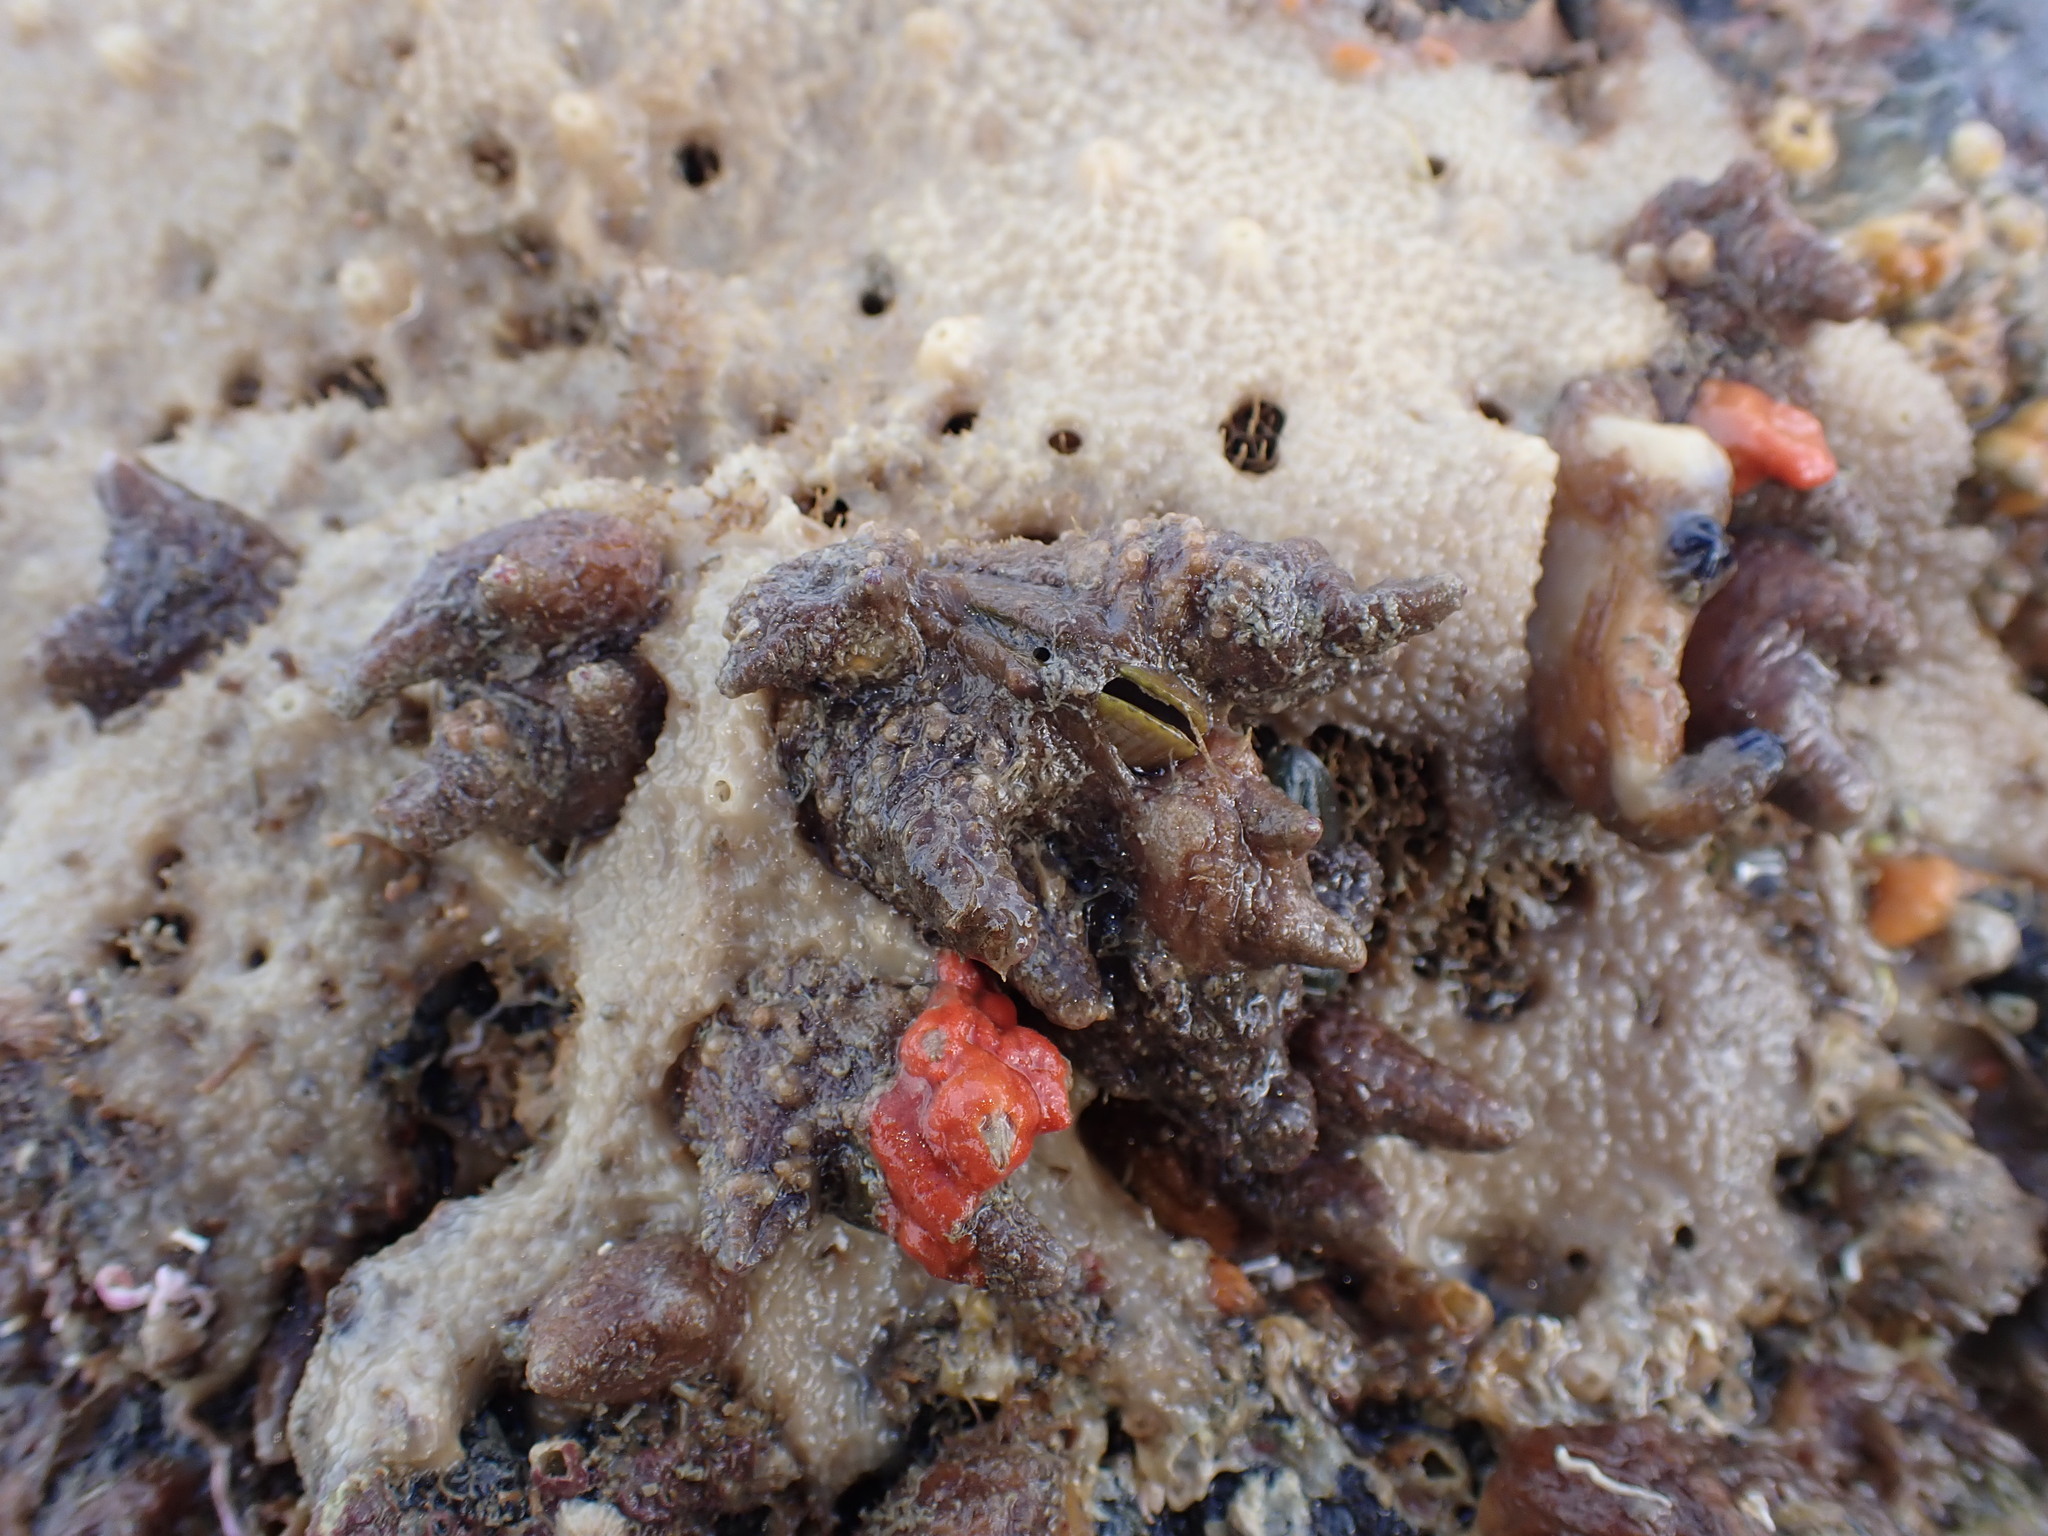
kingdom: Animalia
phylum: Mollusca
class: Bivalvia
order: Mytilida
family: Mytilidae
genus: Musculus
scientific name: Musculus impactus
